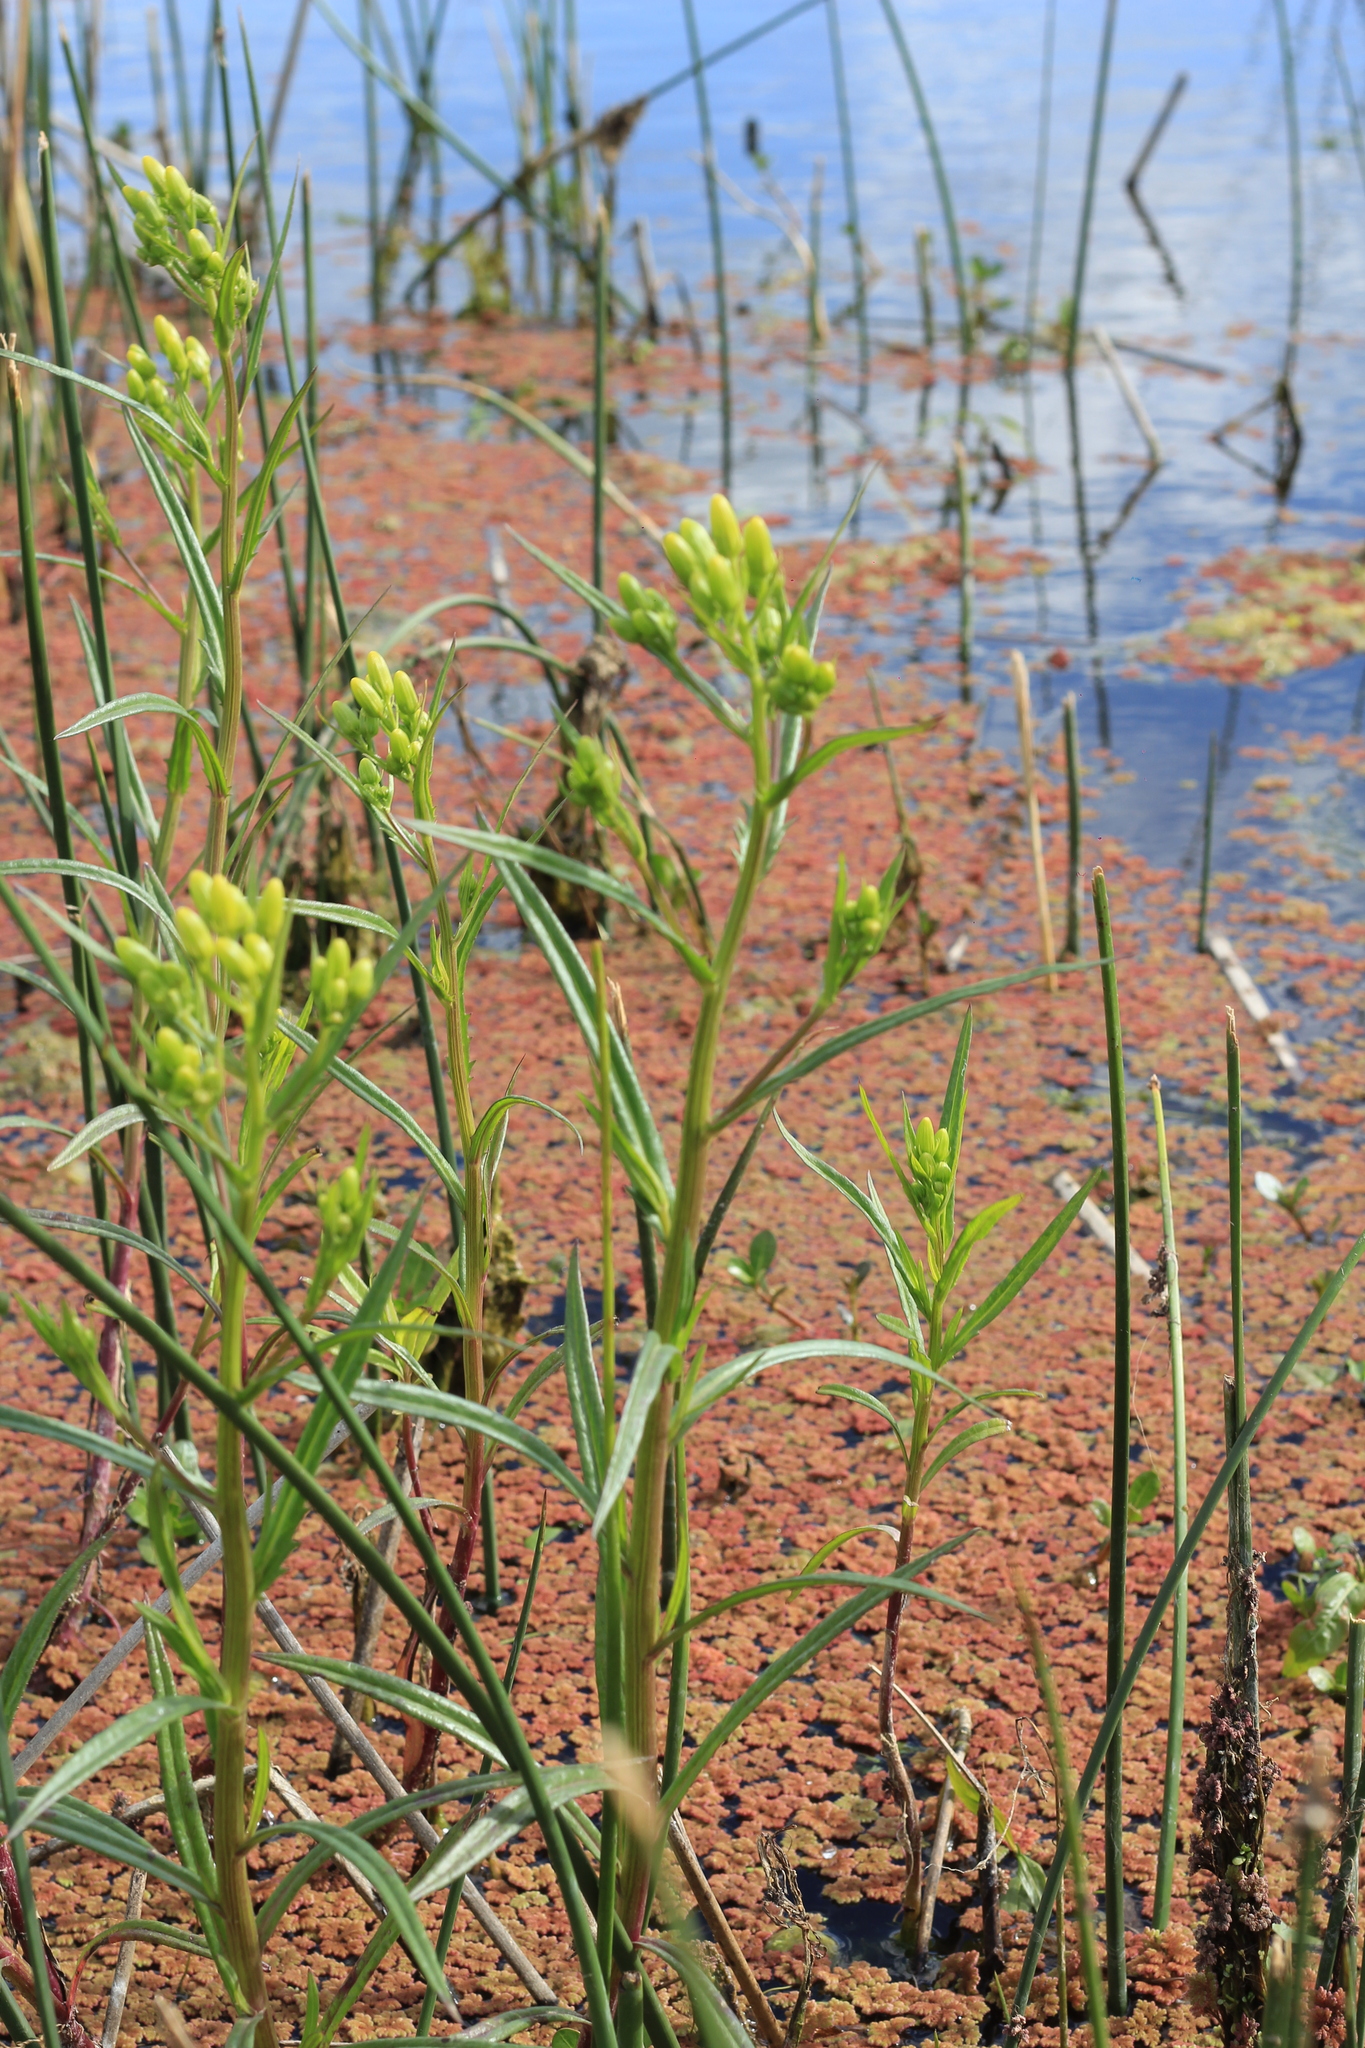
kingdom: Plantae
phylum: Tracheophyta
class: Magnoliopsida
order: Asterales
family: Asteraceae
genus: Senecio
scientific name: Senecio tweediei
